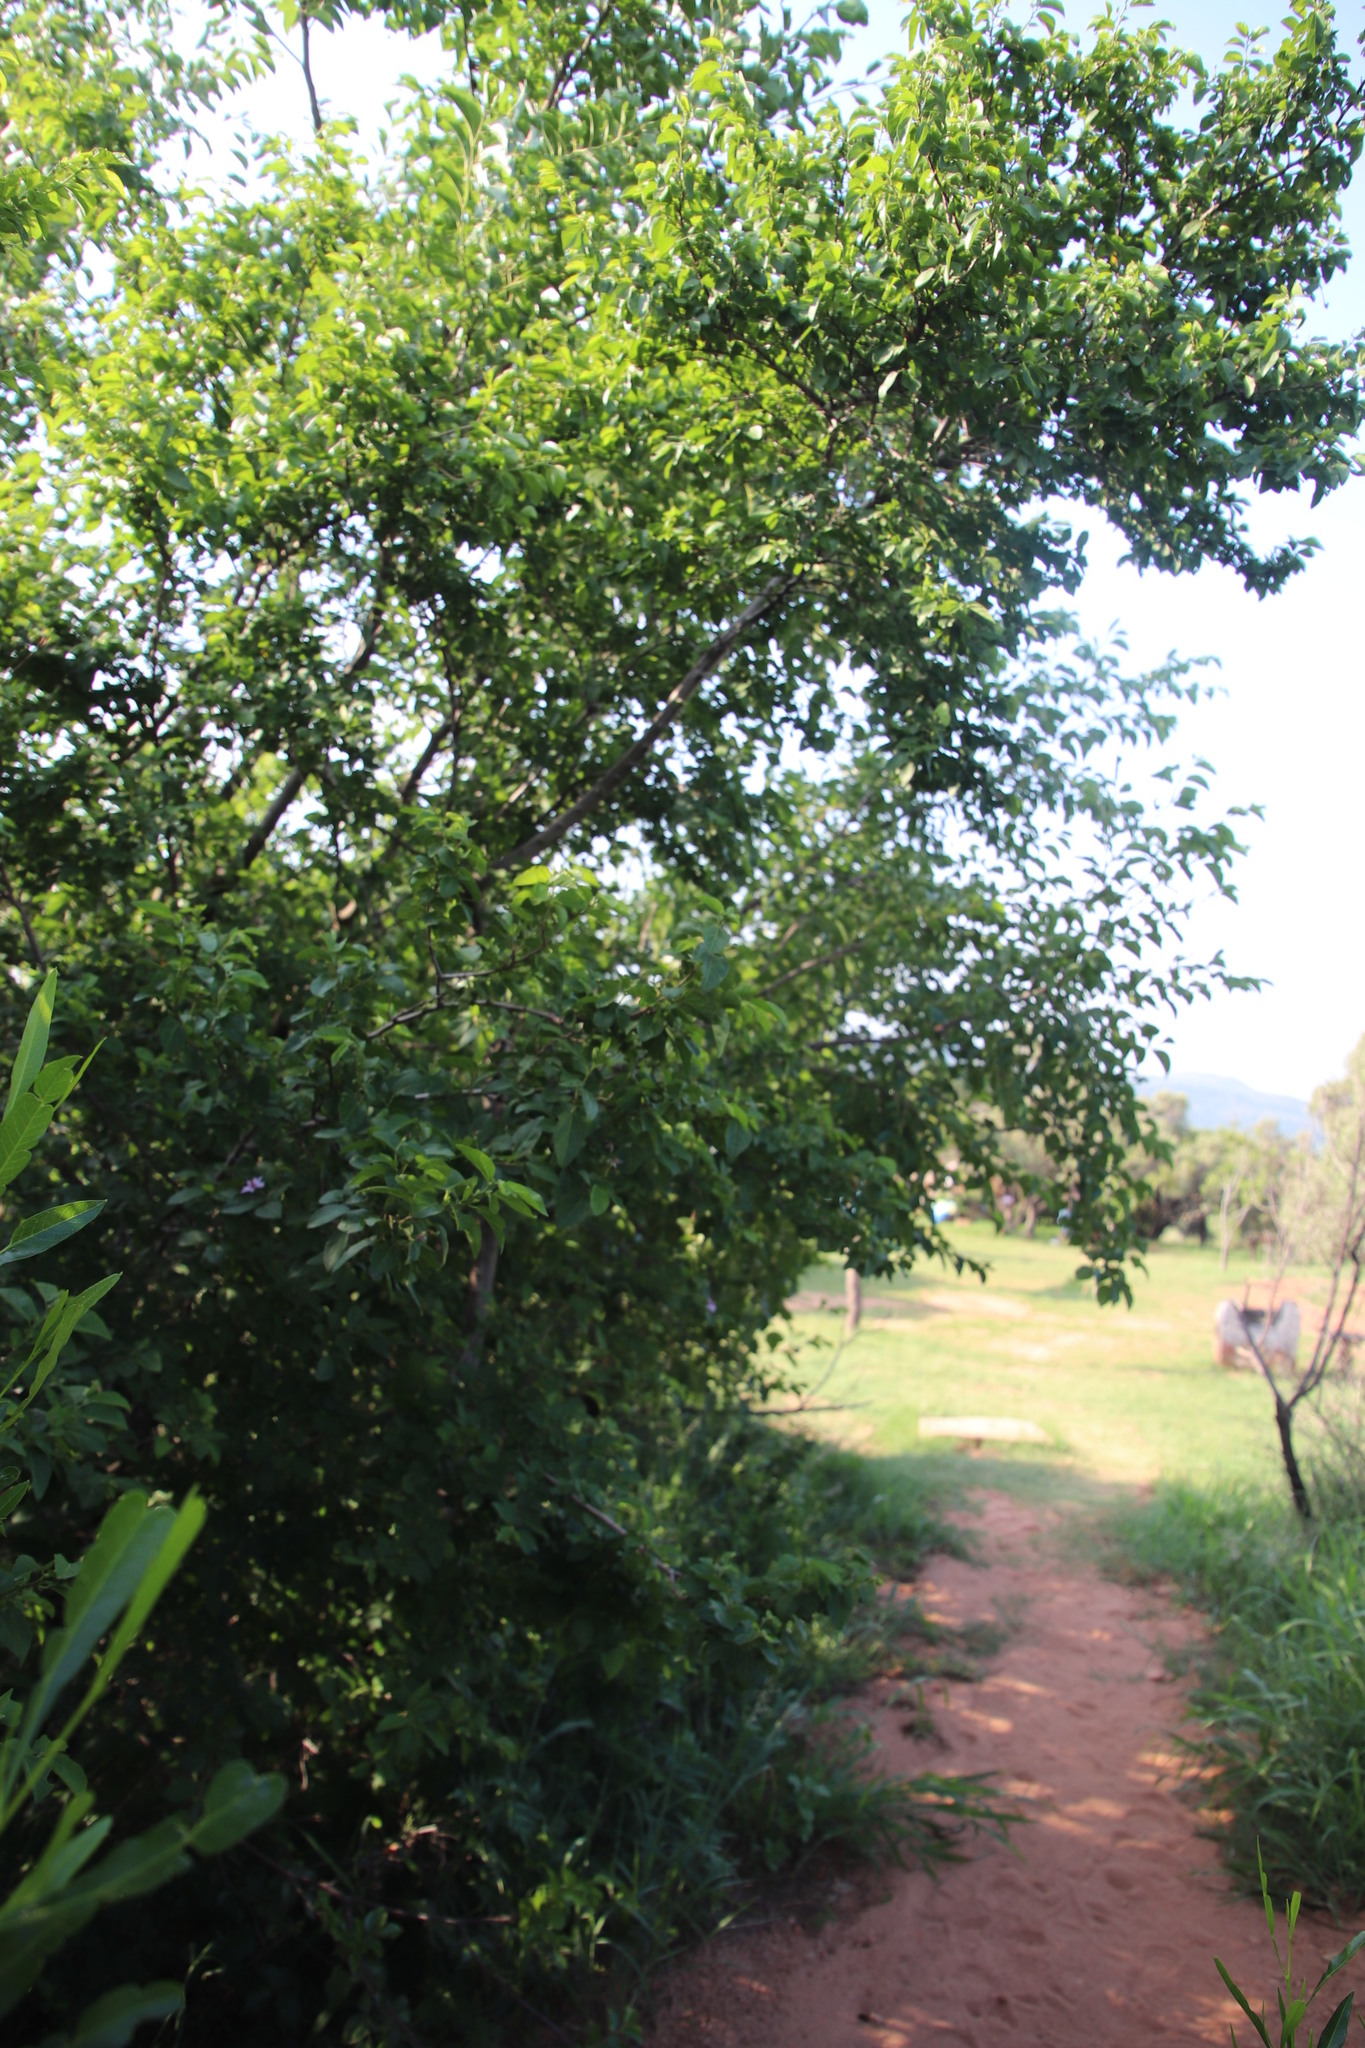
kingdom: Plantae
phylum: Tracheophyta
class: Magnoliopsida
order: Malvales
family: Malvaceae
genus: Grewia
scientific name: Grewia occidentalis
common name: Crossberry
